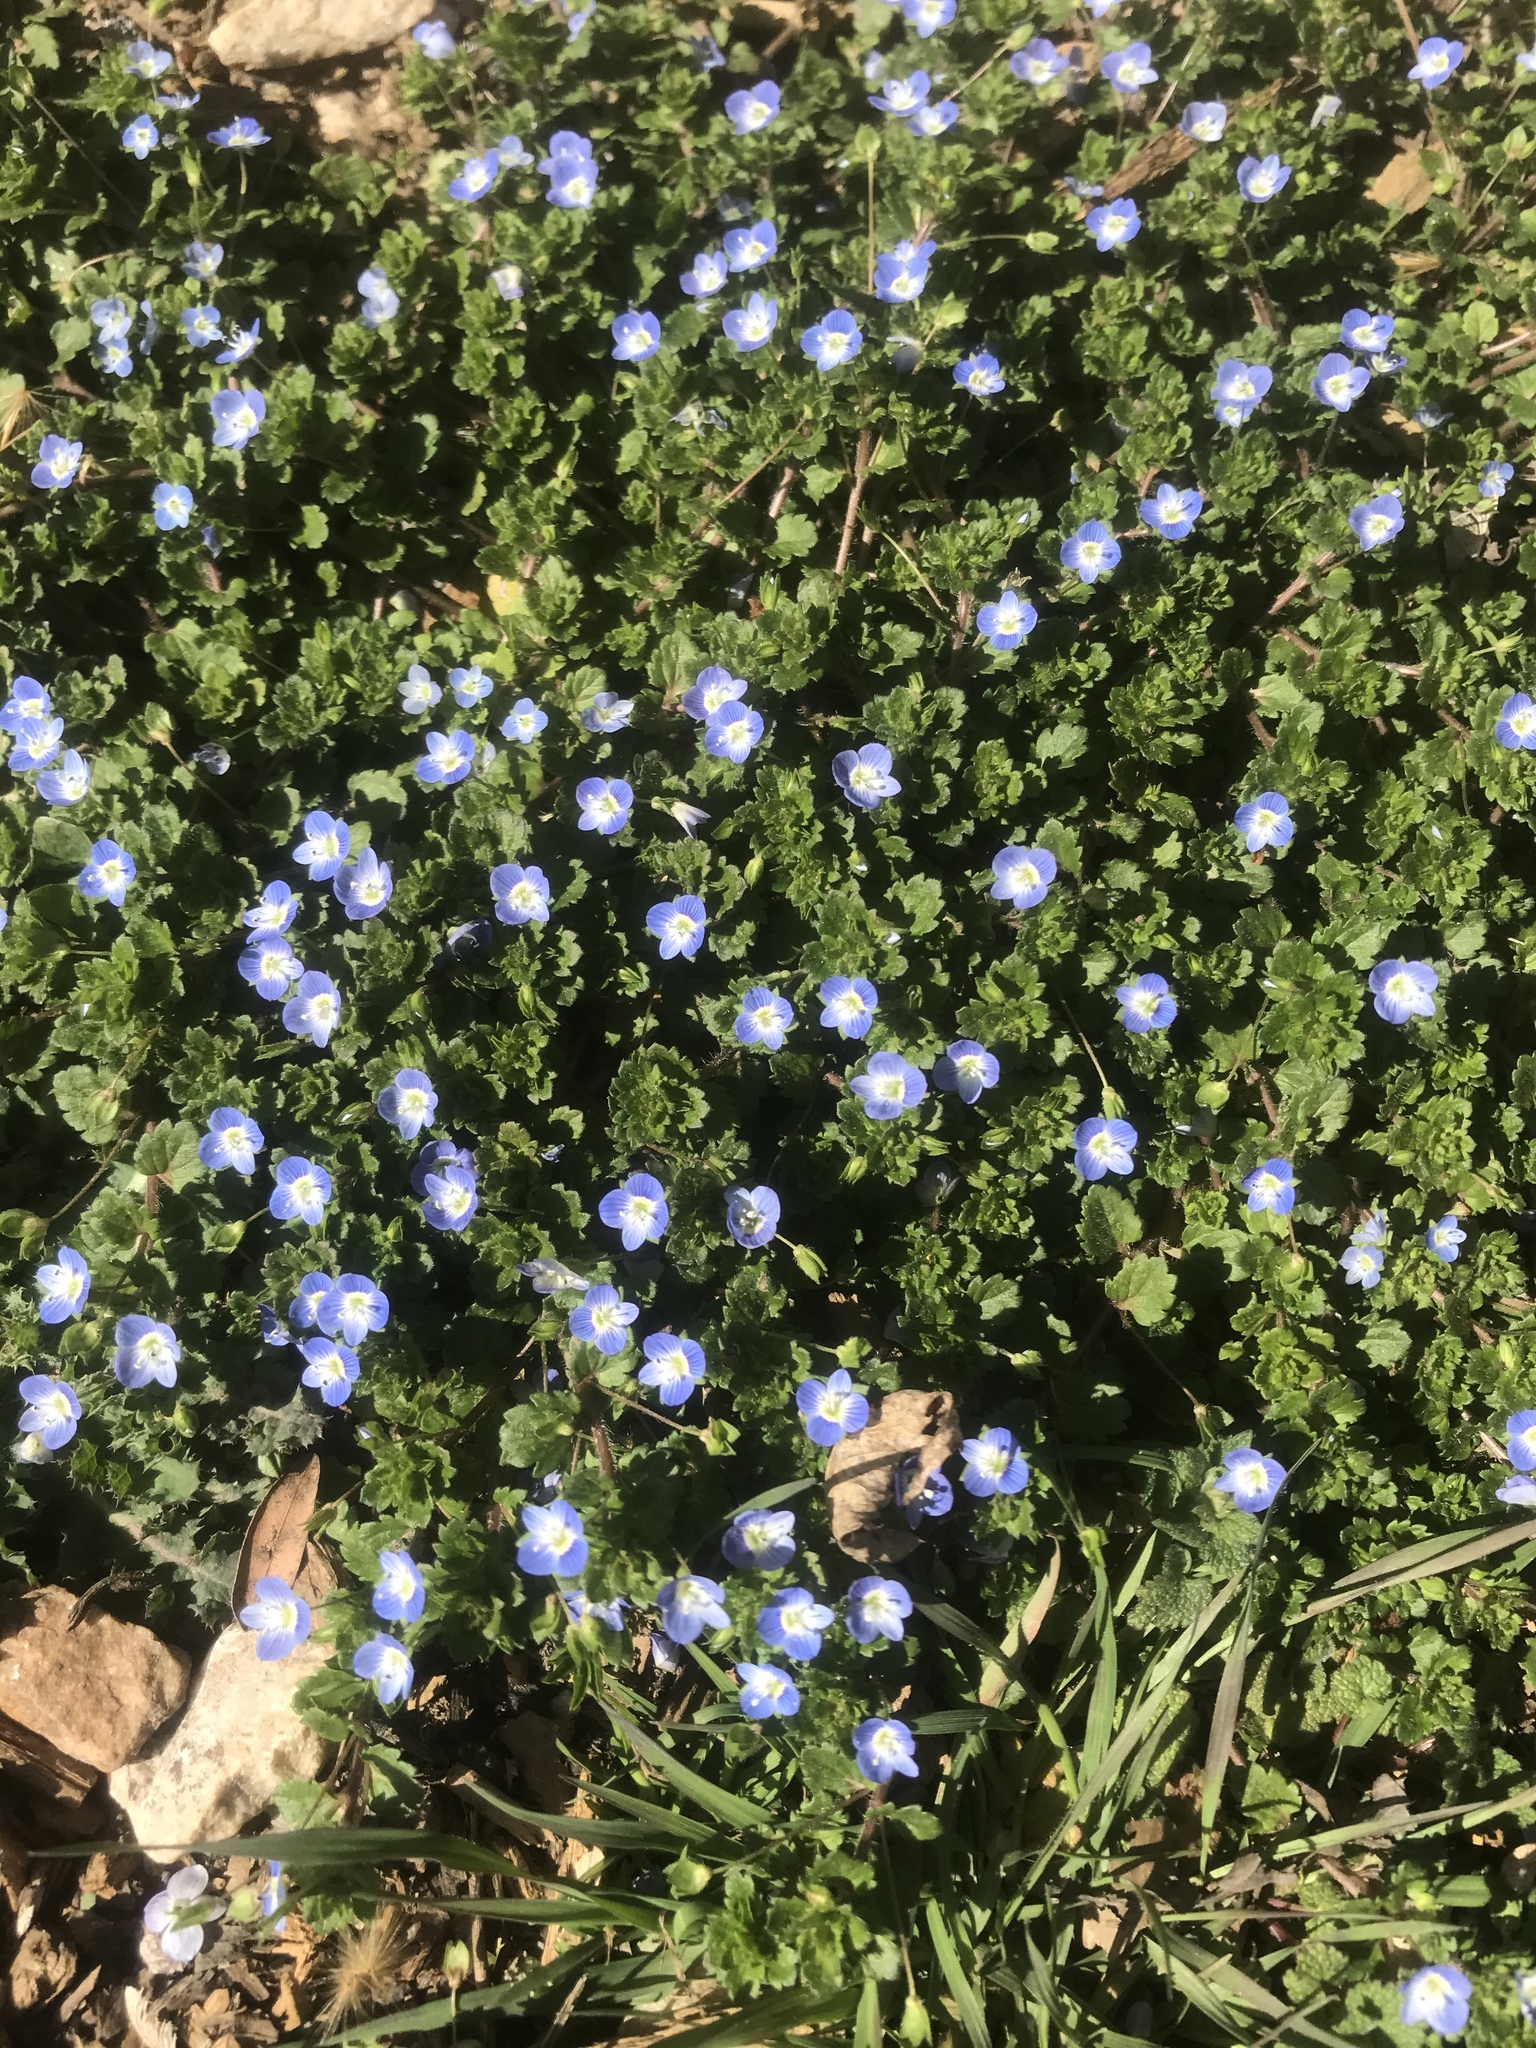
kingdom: Plantae
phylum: Tracheophyta
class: Magnoliopsida
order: Lamiales
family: Plantaginaceae
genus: Veronica
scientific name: Veronica persica
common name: Common field-speedwell
